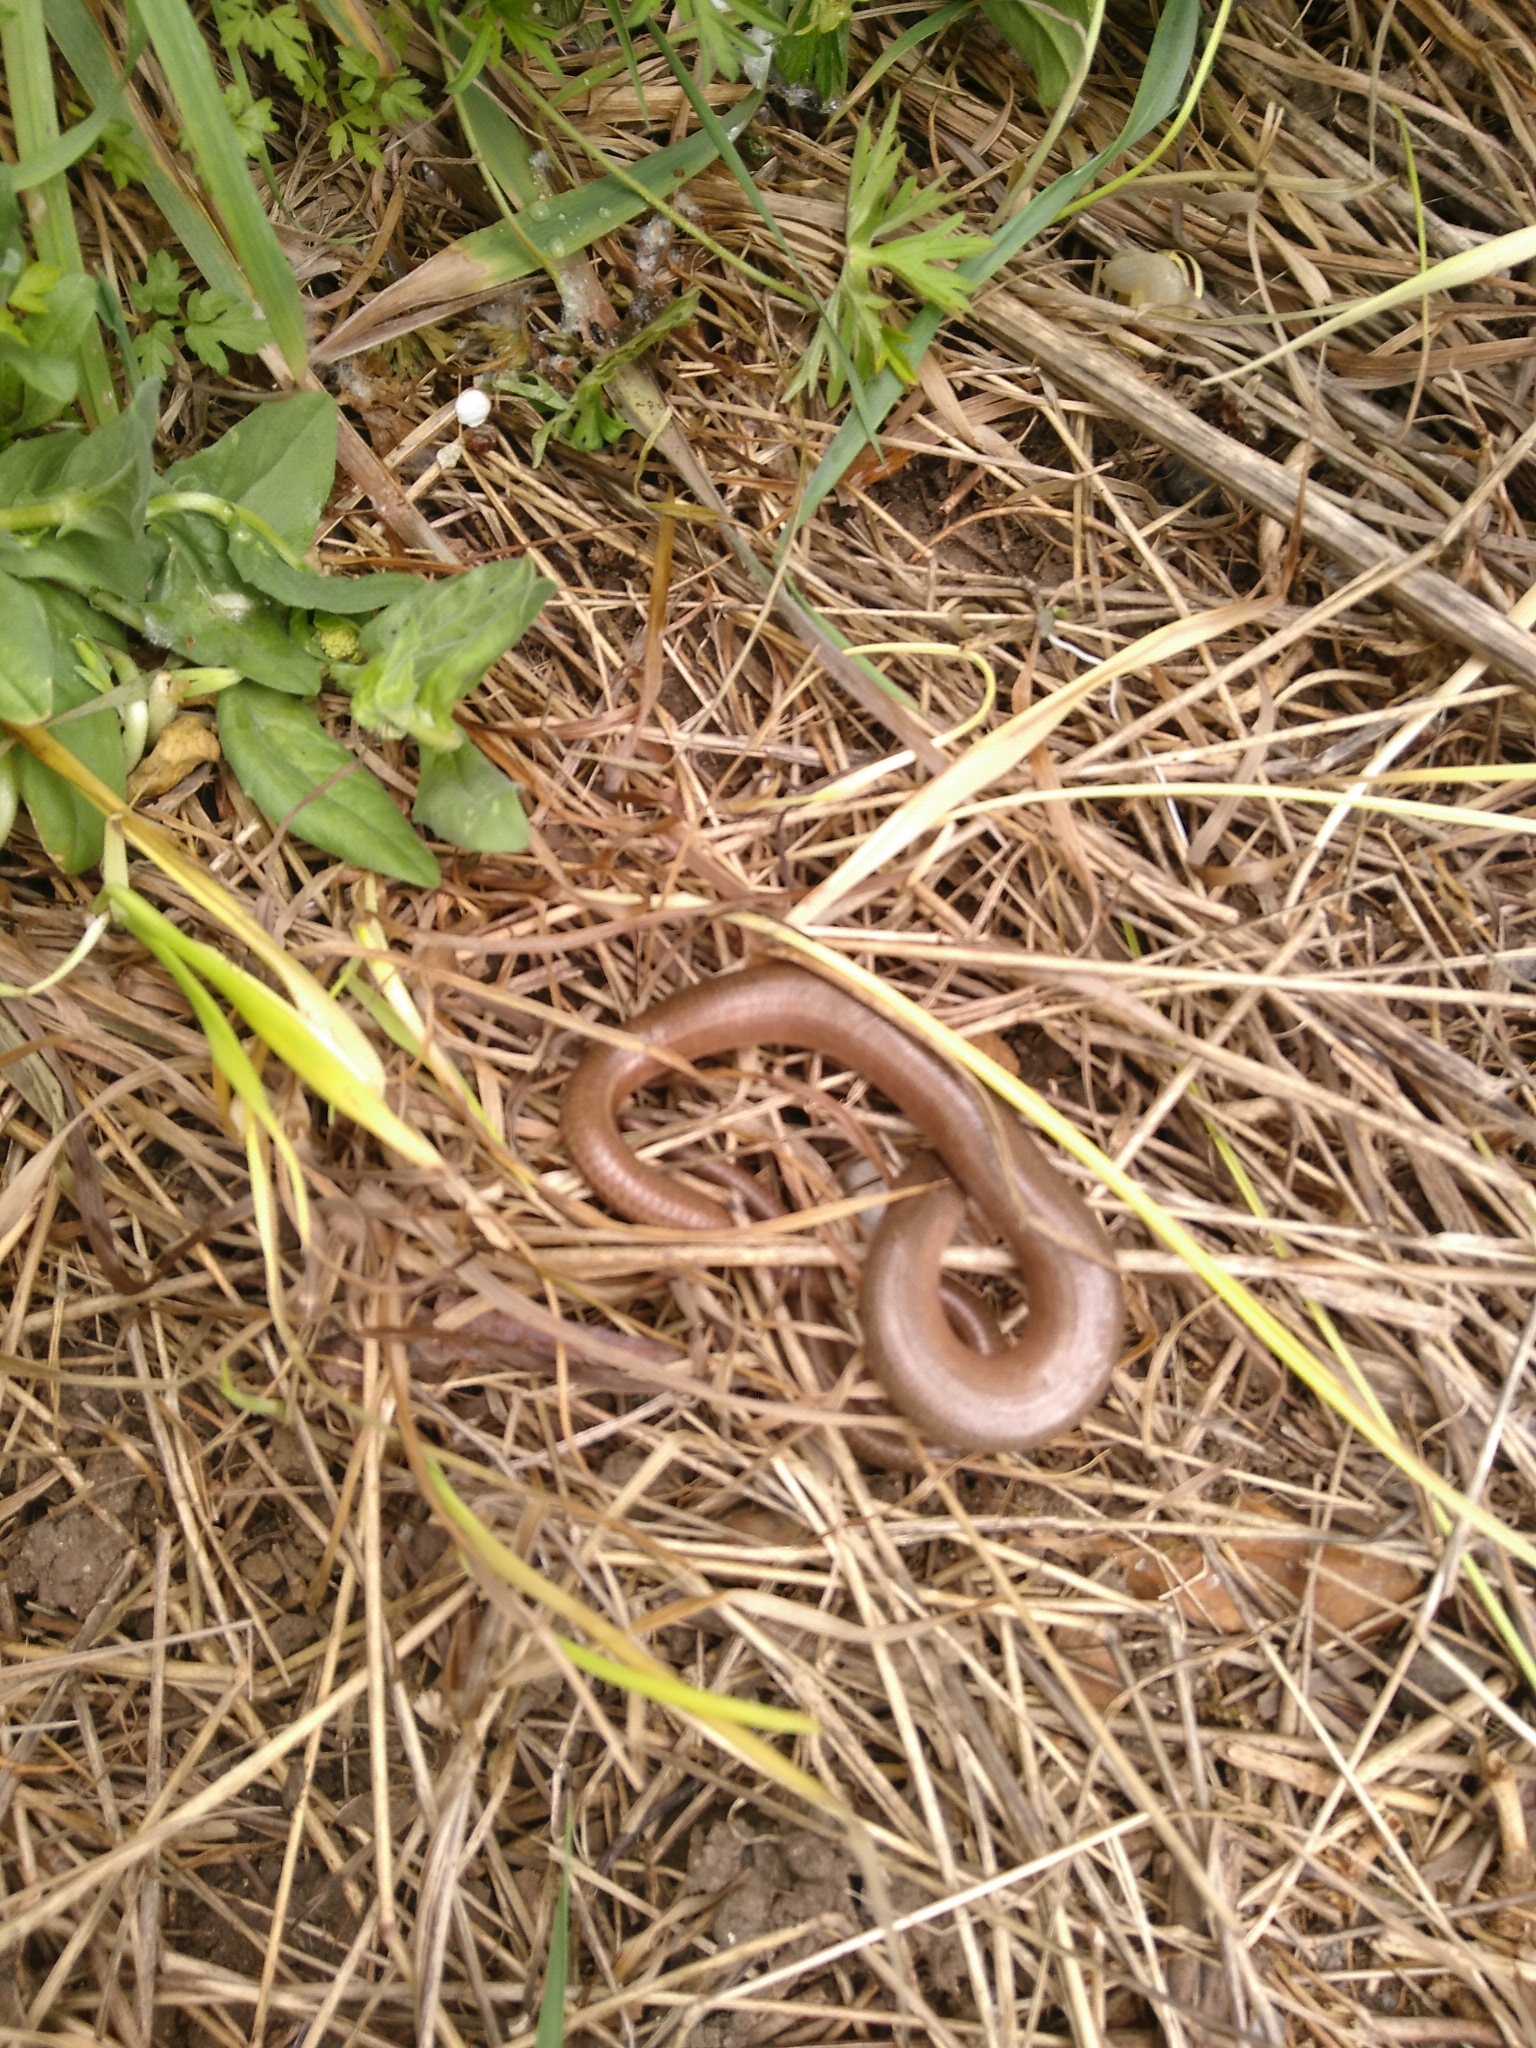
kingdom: Animalia
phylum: Chordata
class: Squamata
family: Anguidae
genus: Anguis
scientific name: Anguis fragilis
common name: Slow worm
